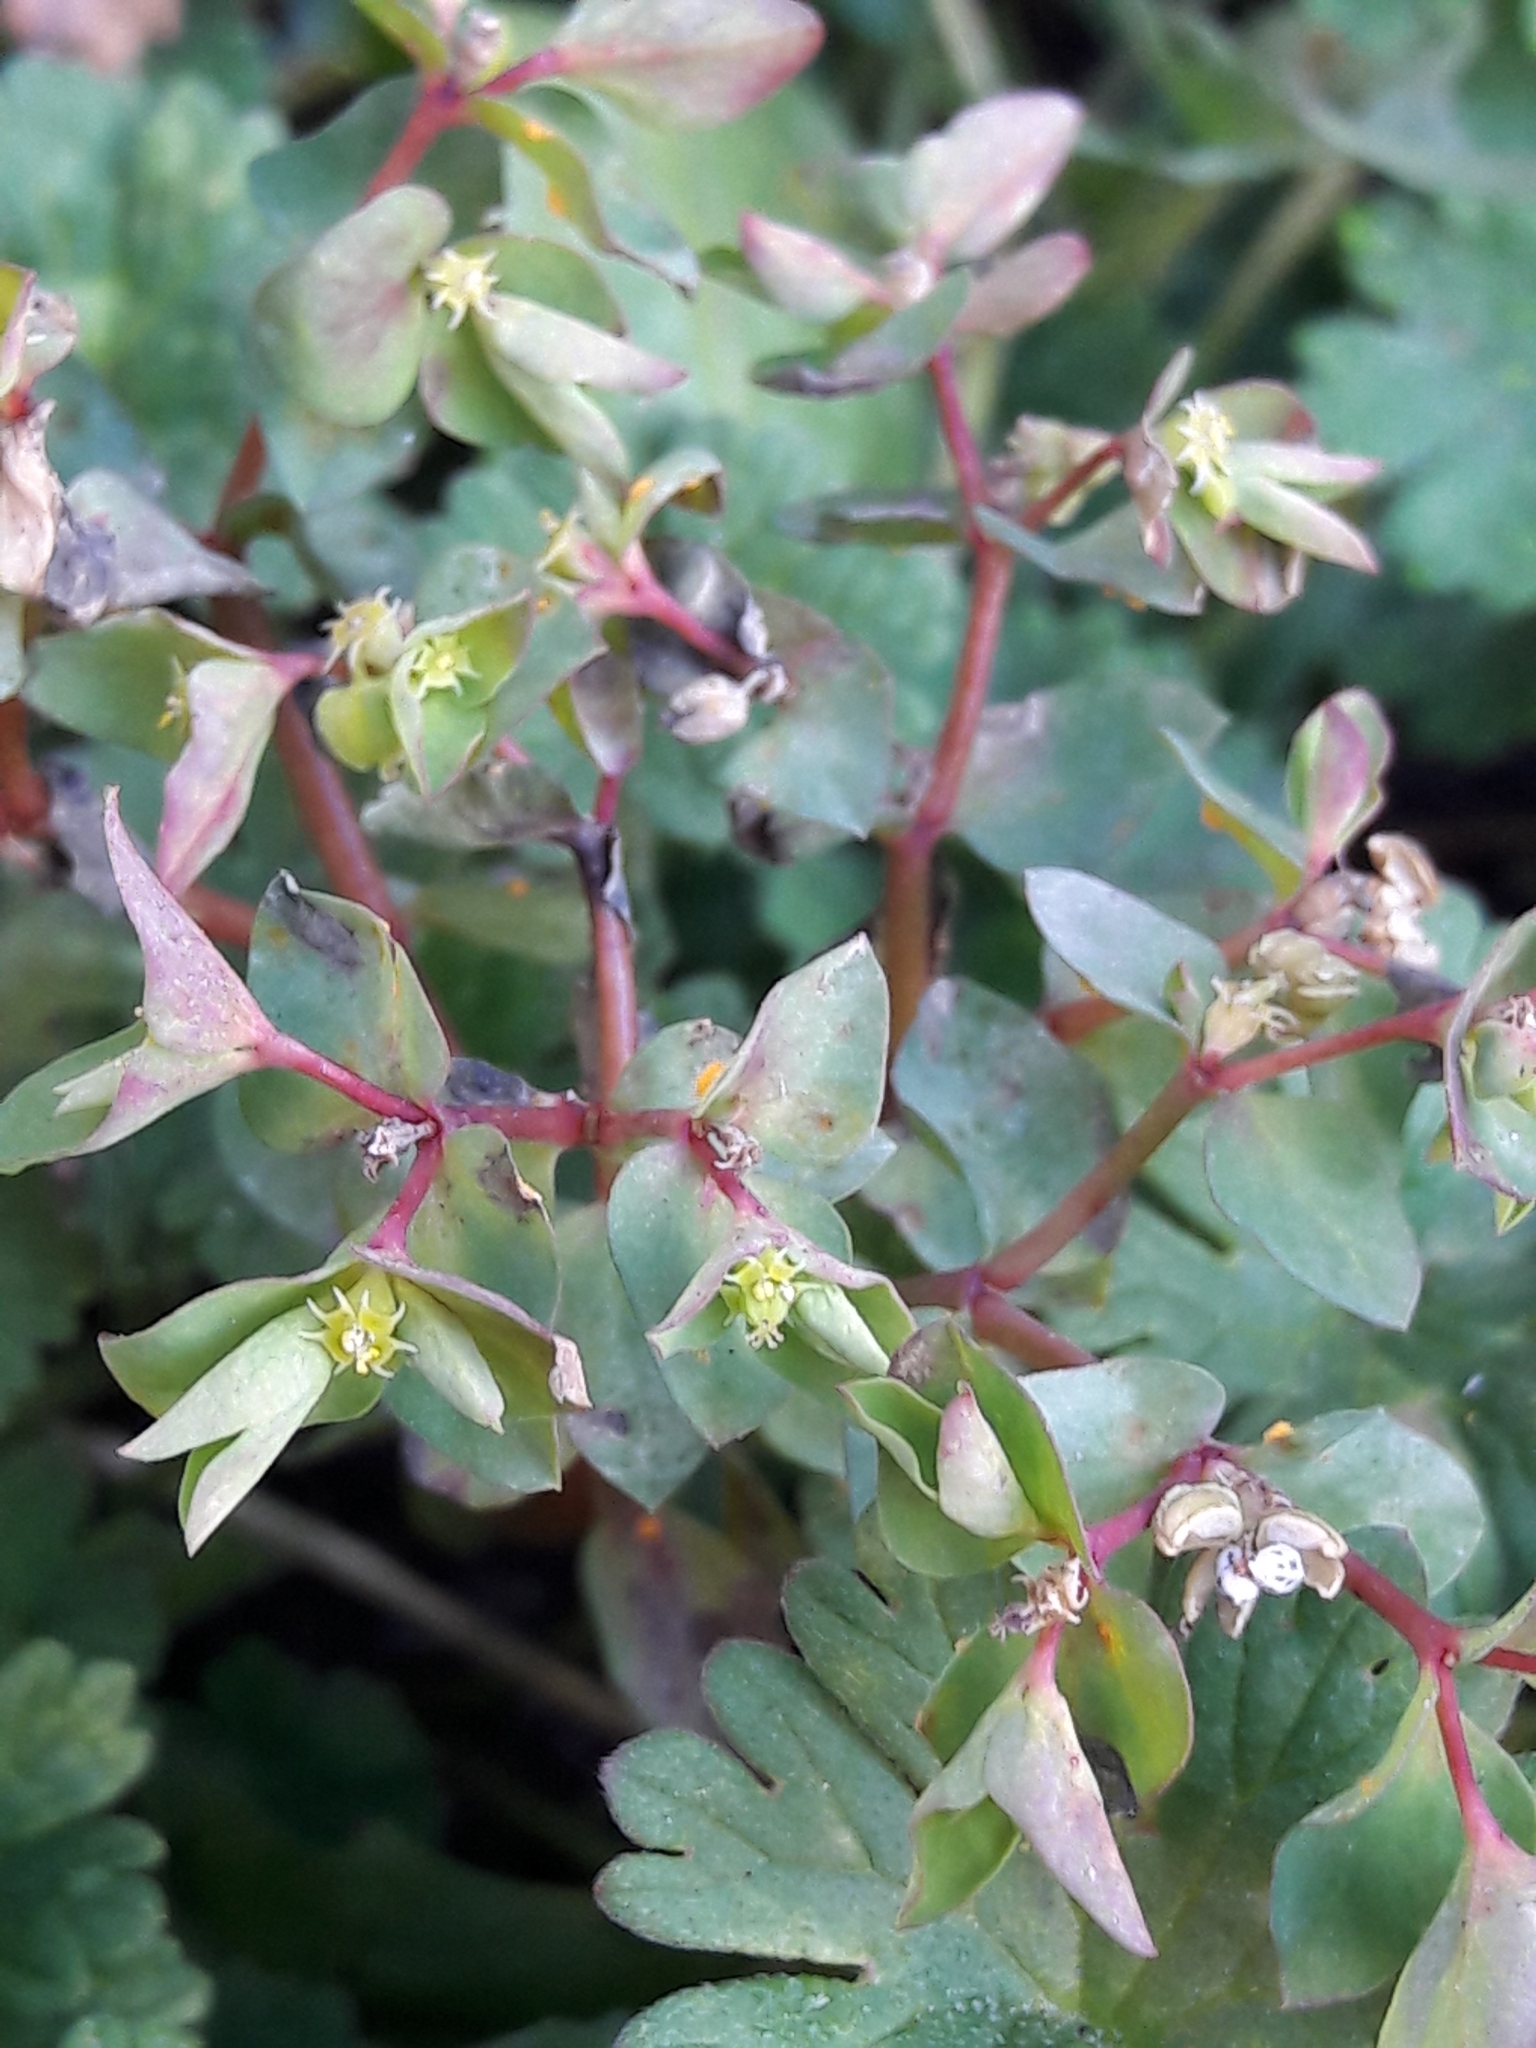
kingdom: Plantae
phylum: Tracheophyta
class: Magnoliopsida
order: Malpighiales
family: Euphorbiaceae
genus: Euphorbia
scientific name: Euphorbia peplus
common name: Petty spurge
